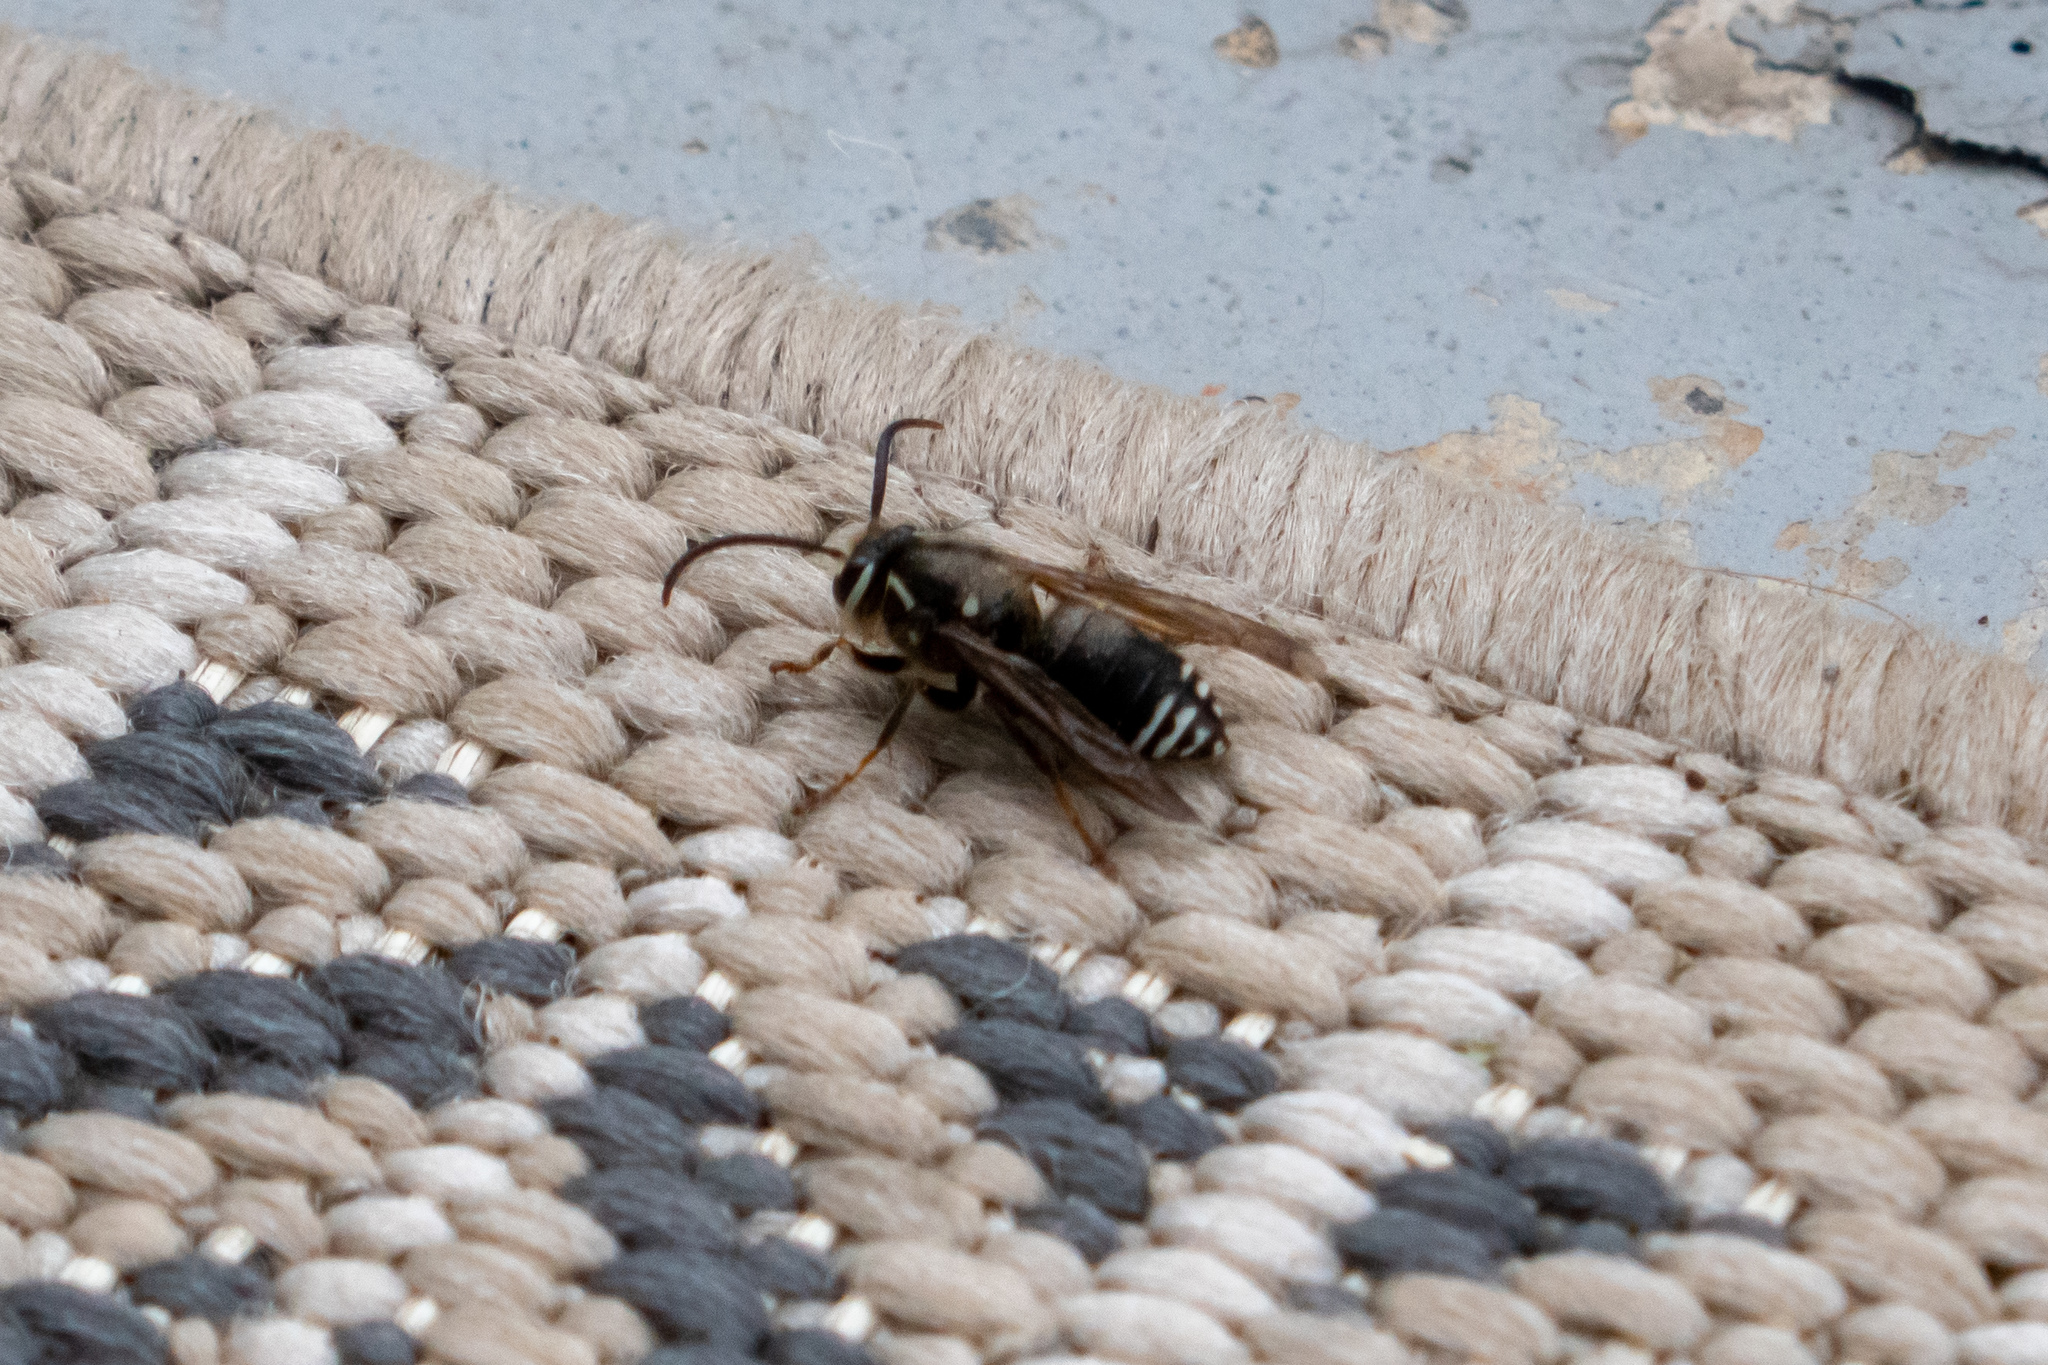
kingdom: Animalia
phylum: Arthropoda
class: Insecta
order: Hymenoptera
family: Vespidae
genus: Dolichovespula
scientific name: Dolichovespula maculata
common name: Bald-faced hornet
